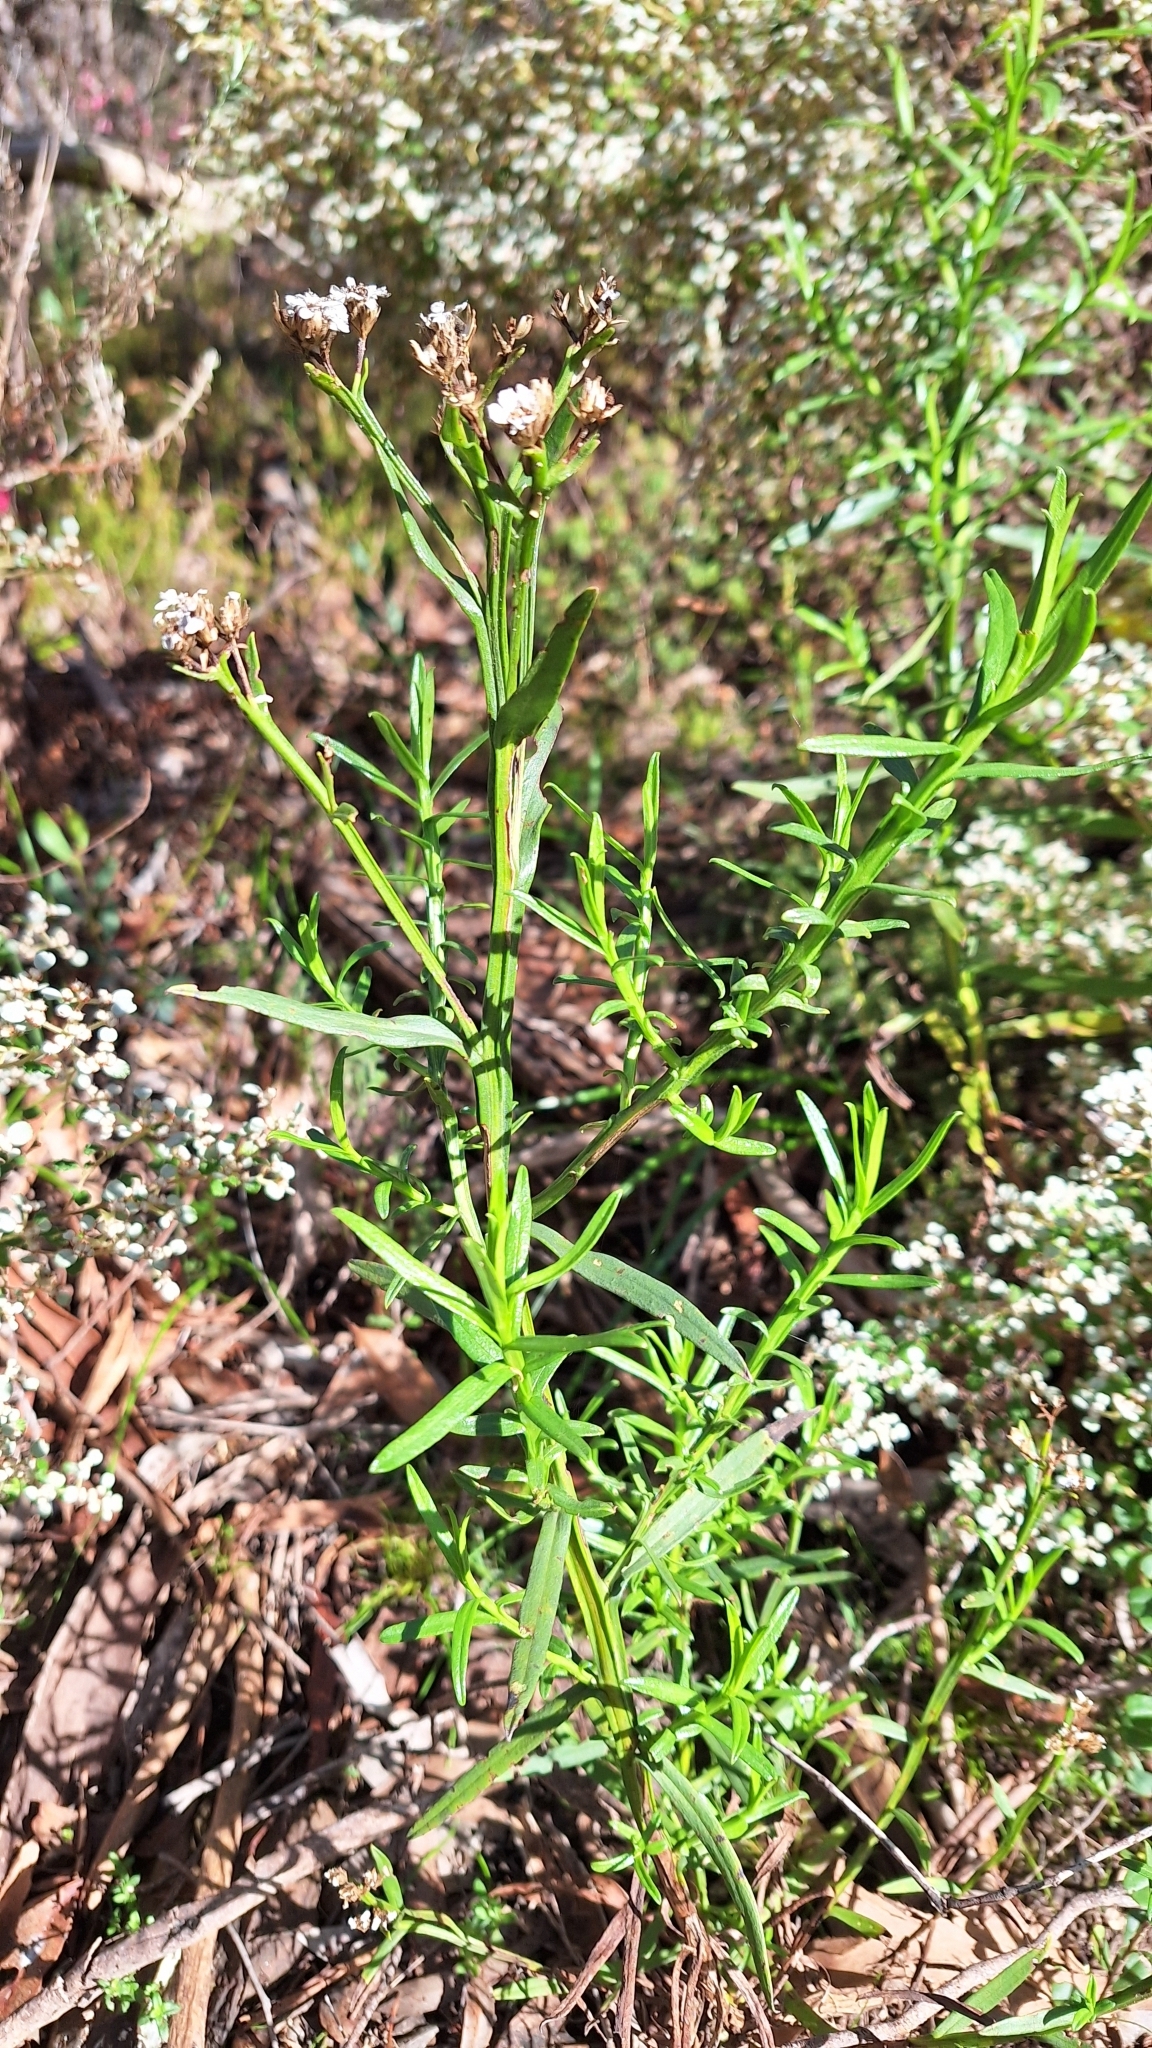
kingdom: Plantae
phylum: Tracheophyta
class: Magnoliopsida
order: Asterales
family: Asteraceae
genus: Ixodia
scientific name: Ixodia achillaeoides
